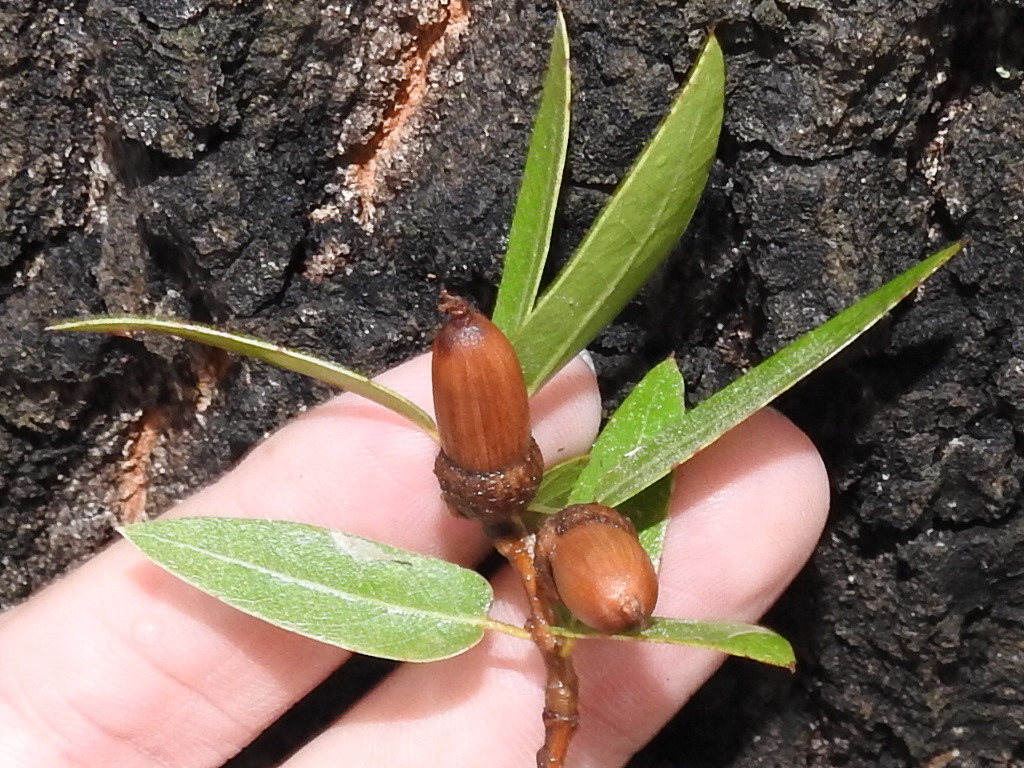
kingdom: Plantae
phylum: Tracheophyta
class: Magnoliopsida
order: Fagales
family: Fagaceae
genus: Quercus
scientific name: Quercus emoryi
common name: Emory oak
